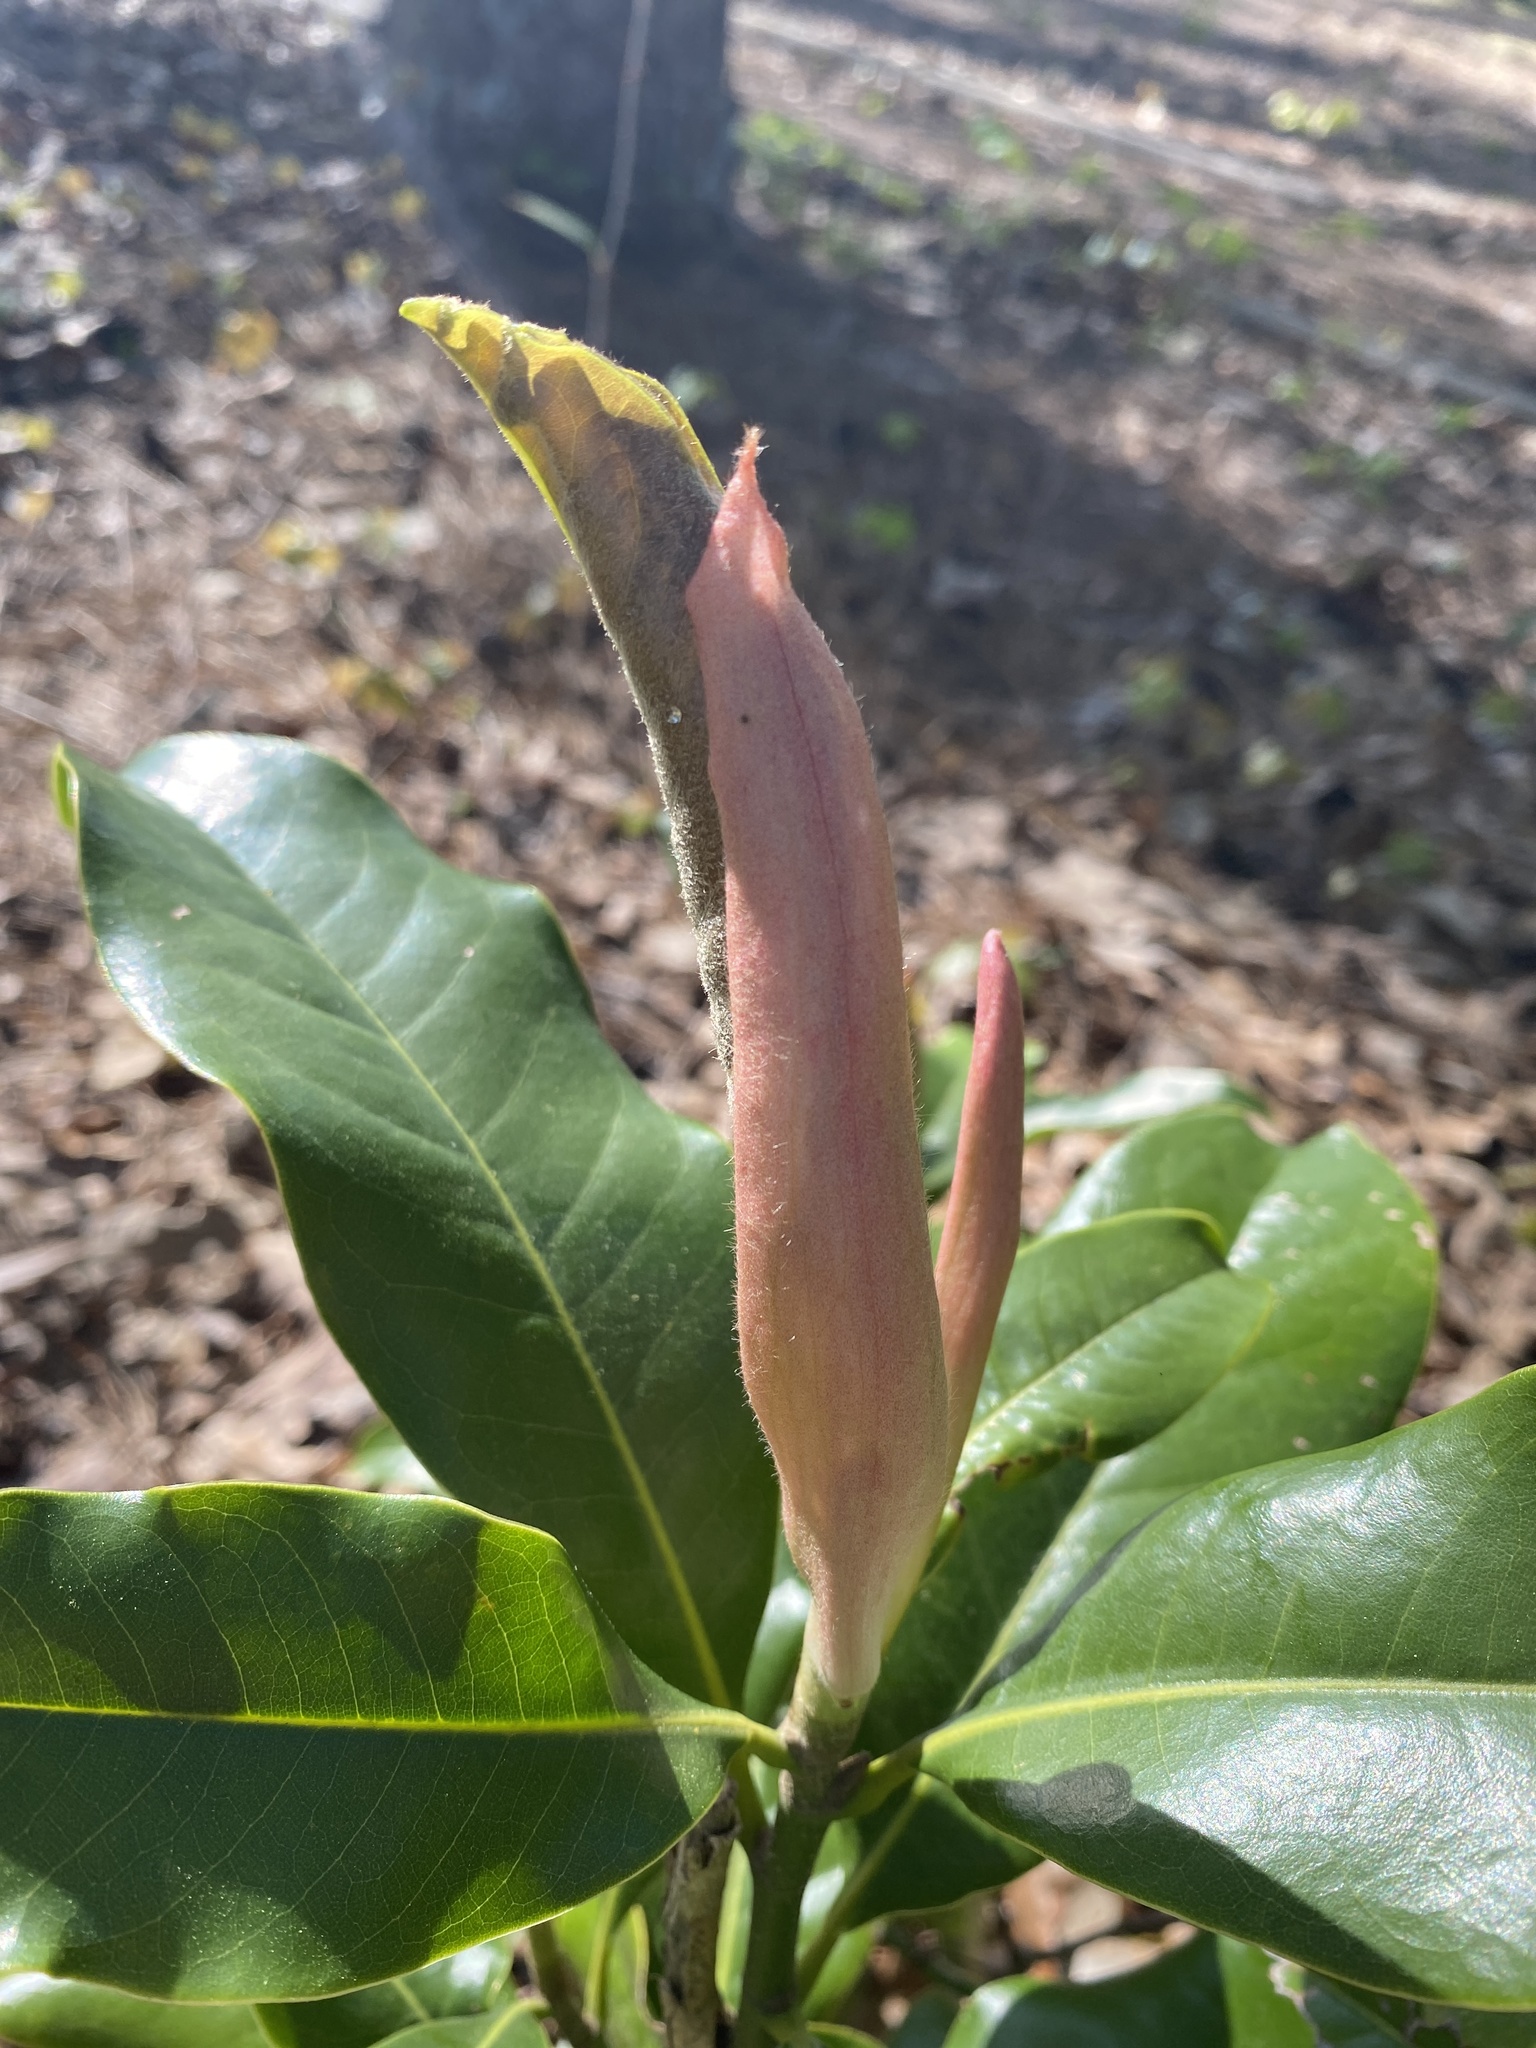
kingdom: Plantae
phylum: Tracheophyta
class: Magnoliopsida
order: Magnoliales
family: Magnoliaceae
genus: Magnolia
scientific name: Magnolia grandiflora
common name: Southern magnolia
